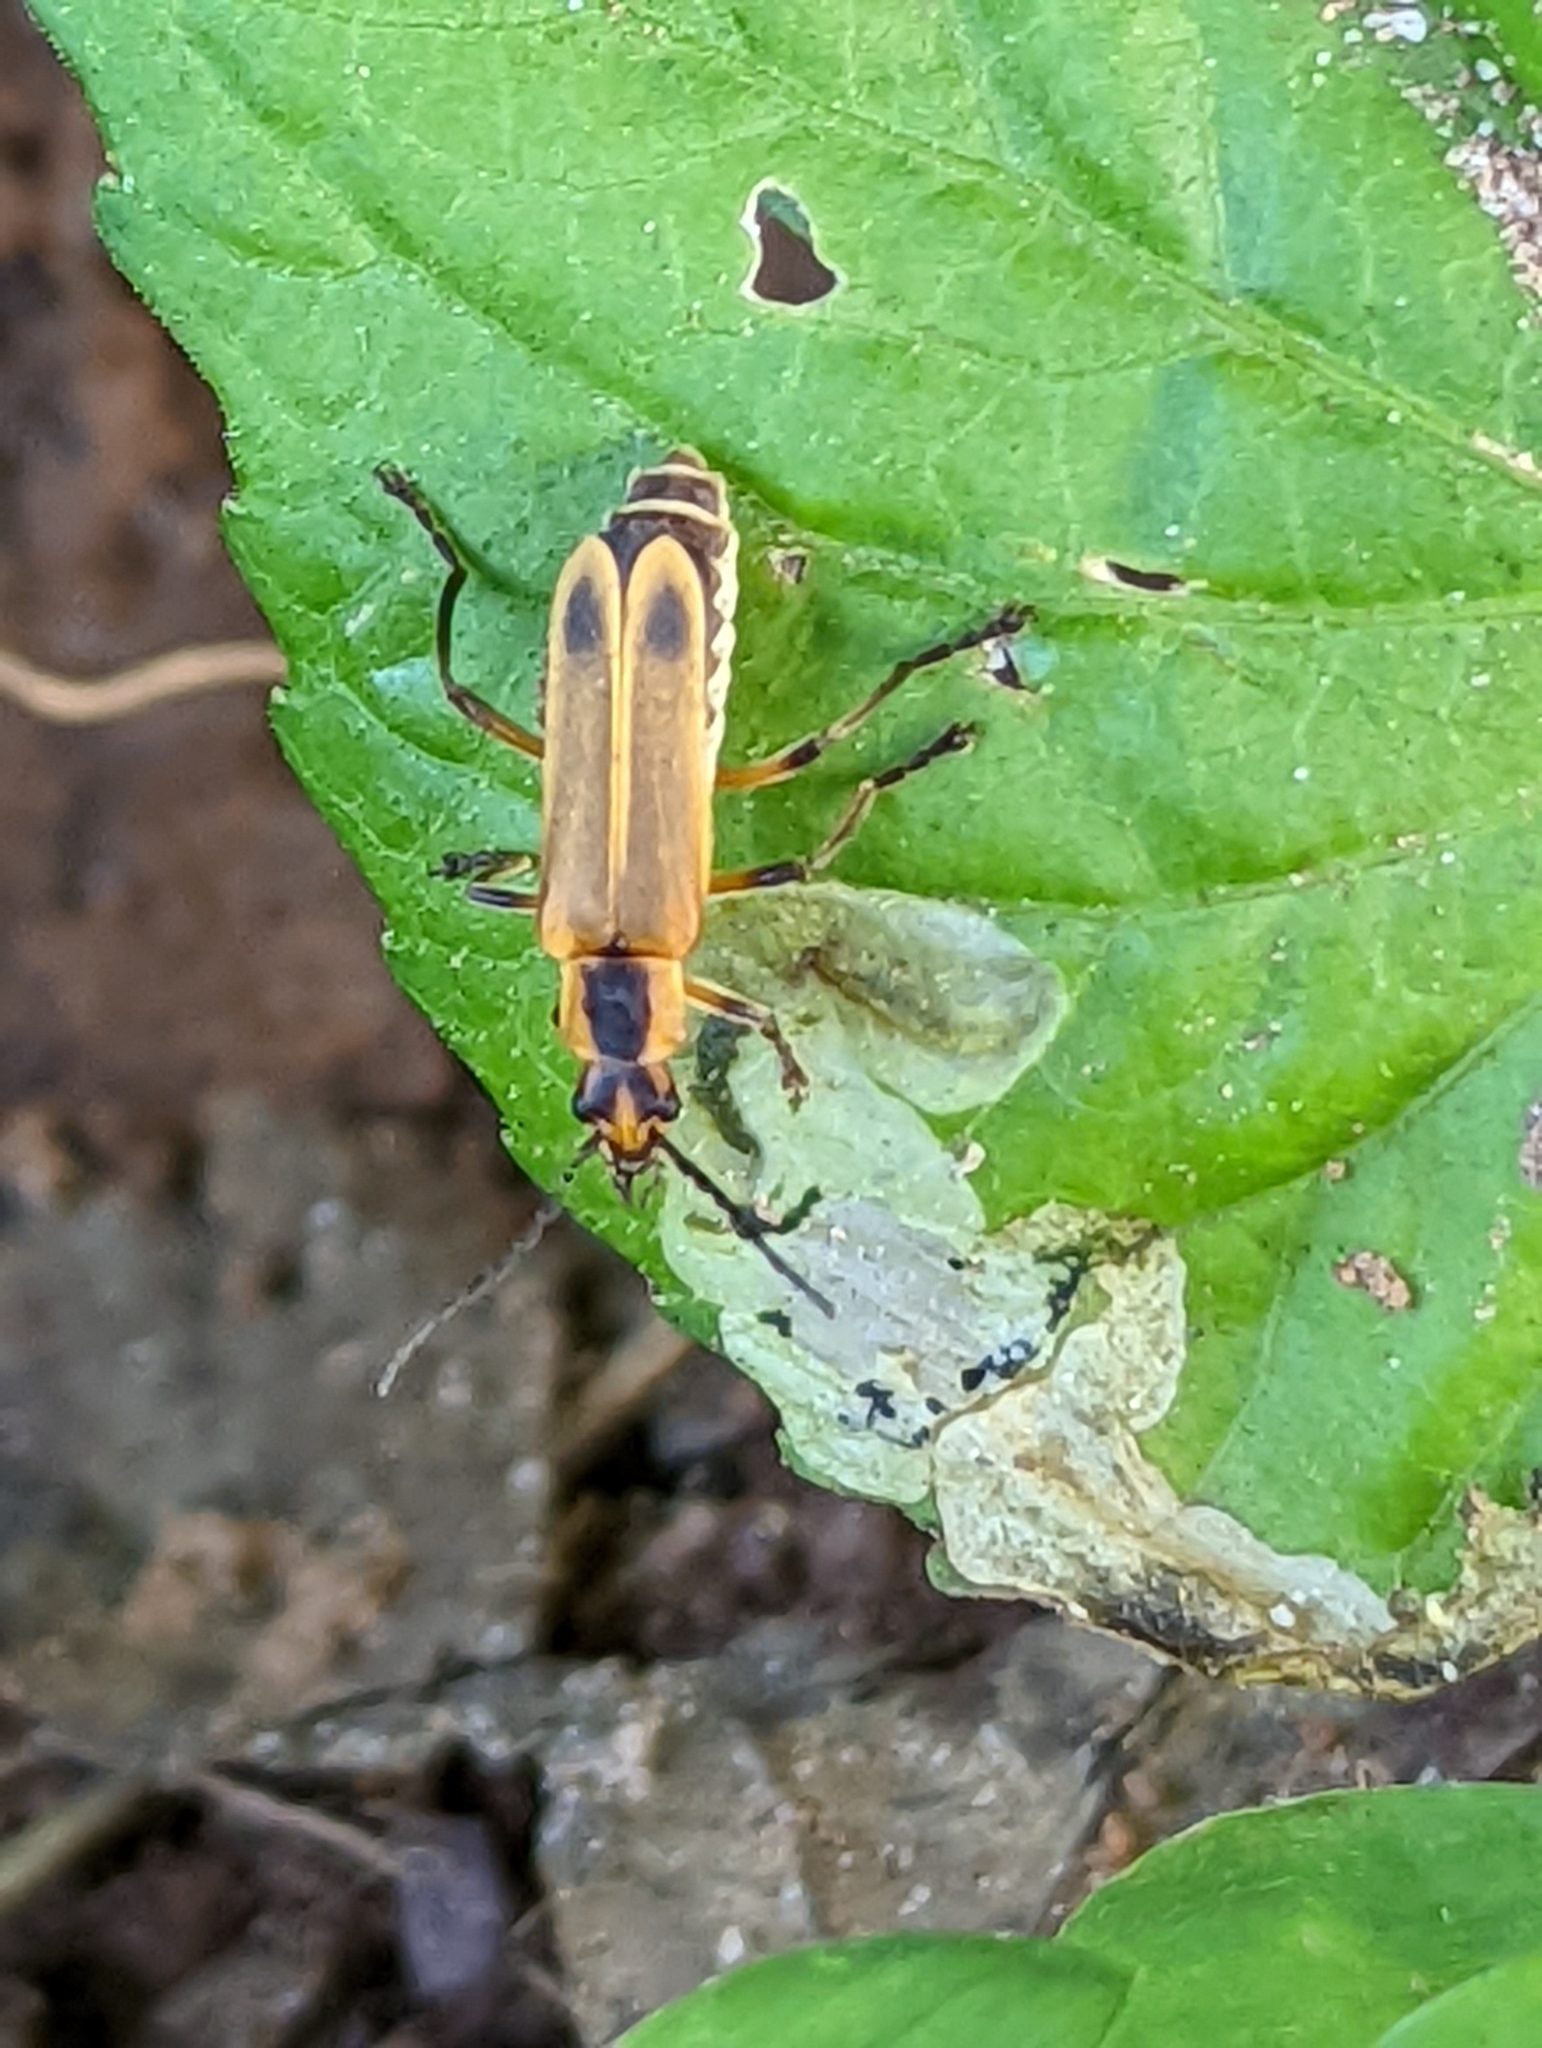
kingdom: Animalia
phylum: Arthropoda
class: Insecta
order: Coleoptera
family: Cantharidae
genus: Chauliognathus
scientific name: Chauliognathus marginatus
